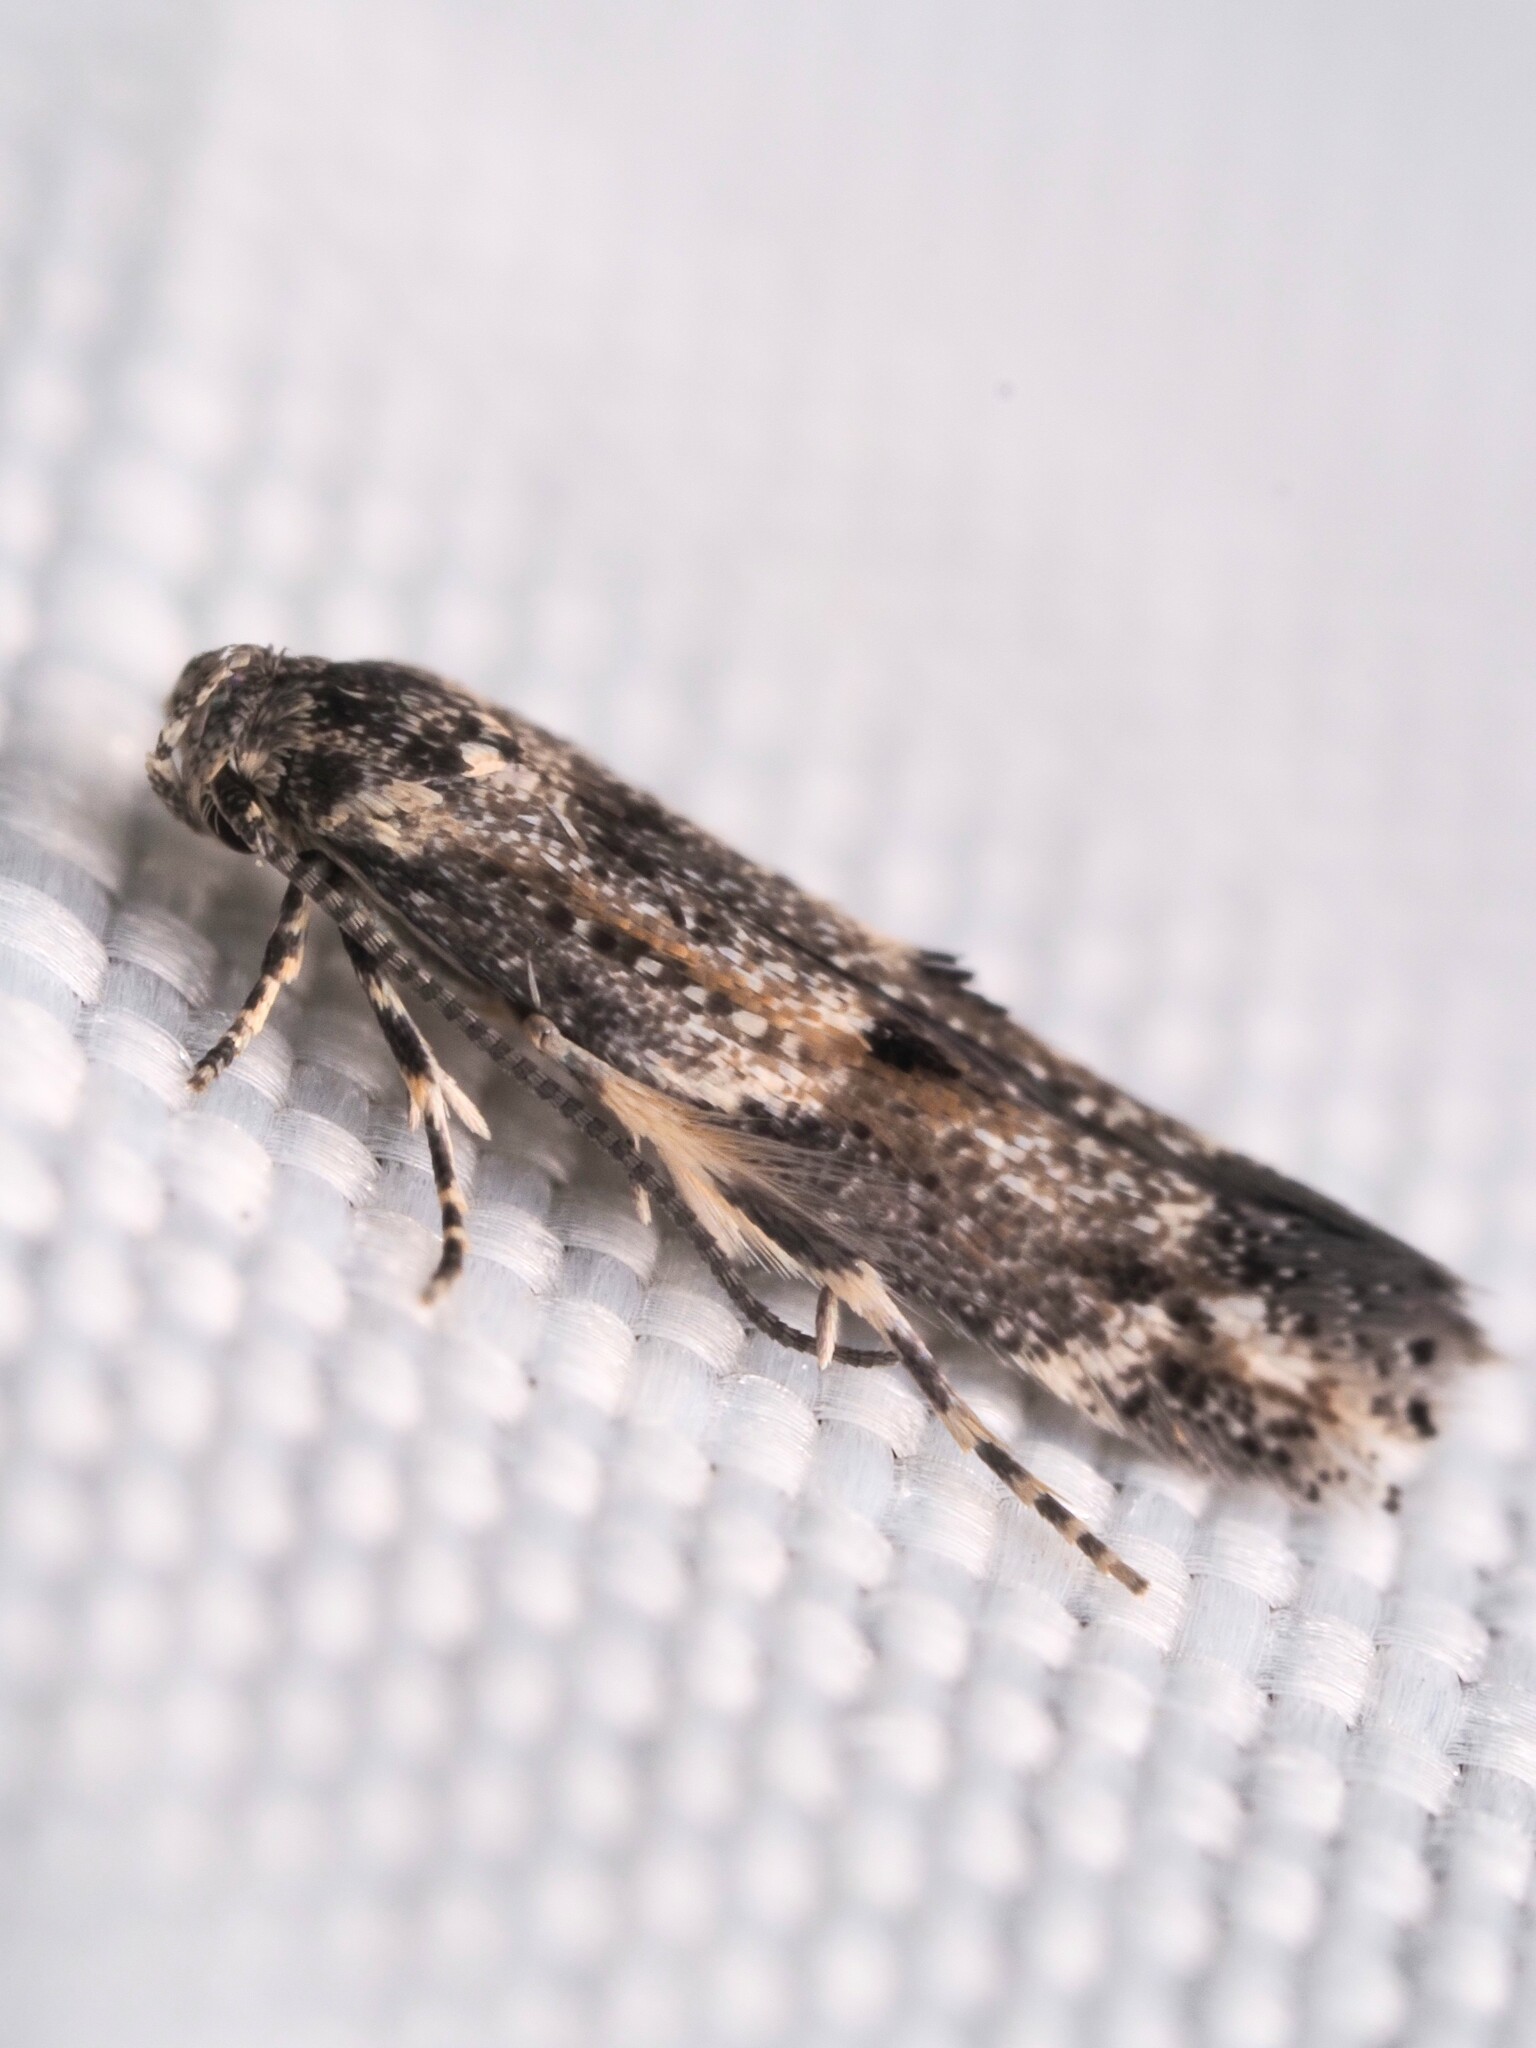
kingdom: Animalia
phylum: Arthropoda
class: Insecta
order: Lepidoptera
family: Elachistidae
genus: Elachista
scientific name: Elachista synethes
